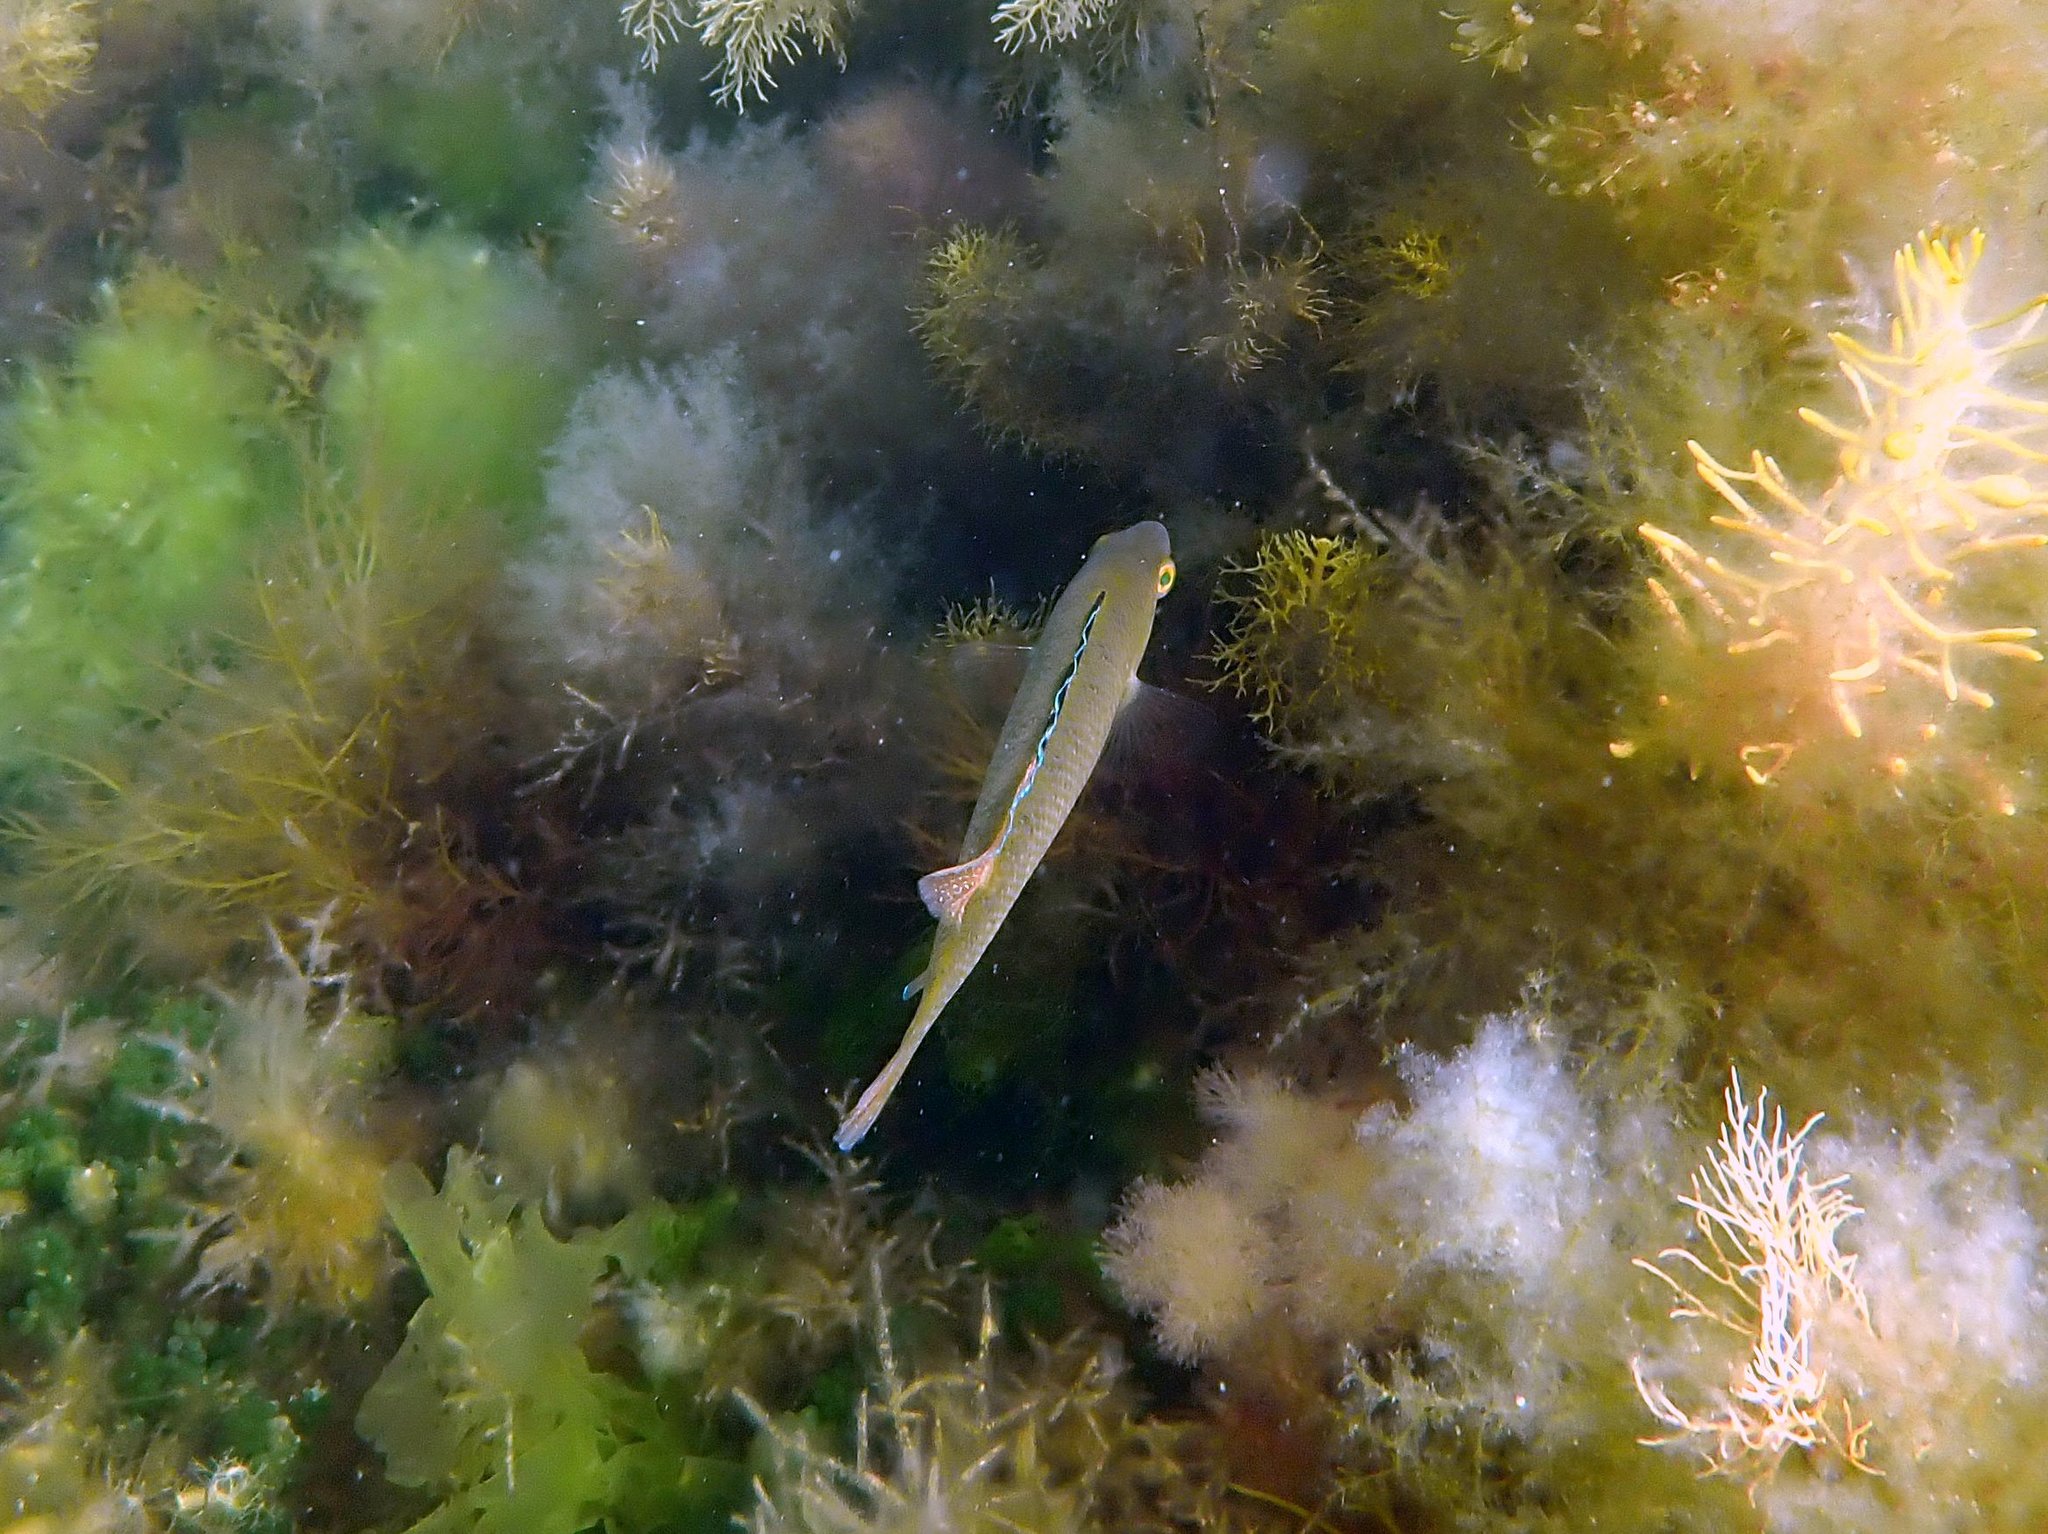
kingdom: Animalia
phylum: Chordata
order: Perciformes
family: Odacidae
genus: Neoodax
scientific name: Neoodax balteatus
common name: Ground mullet
